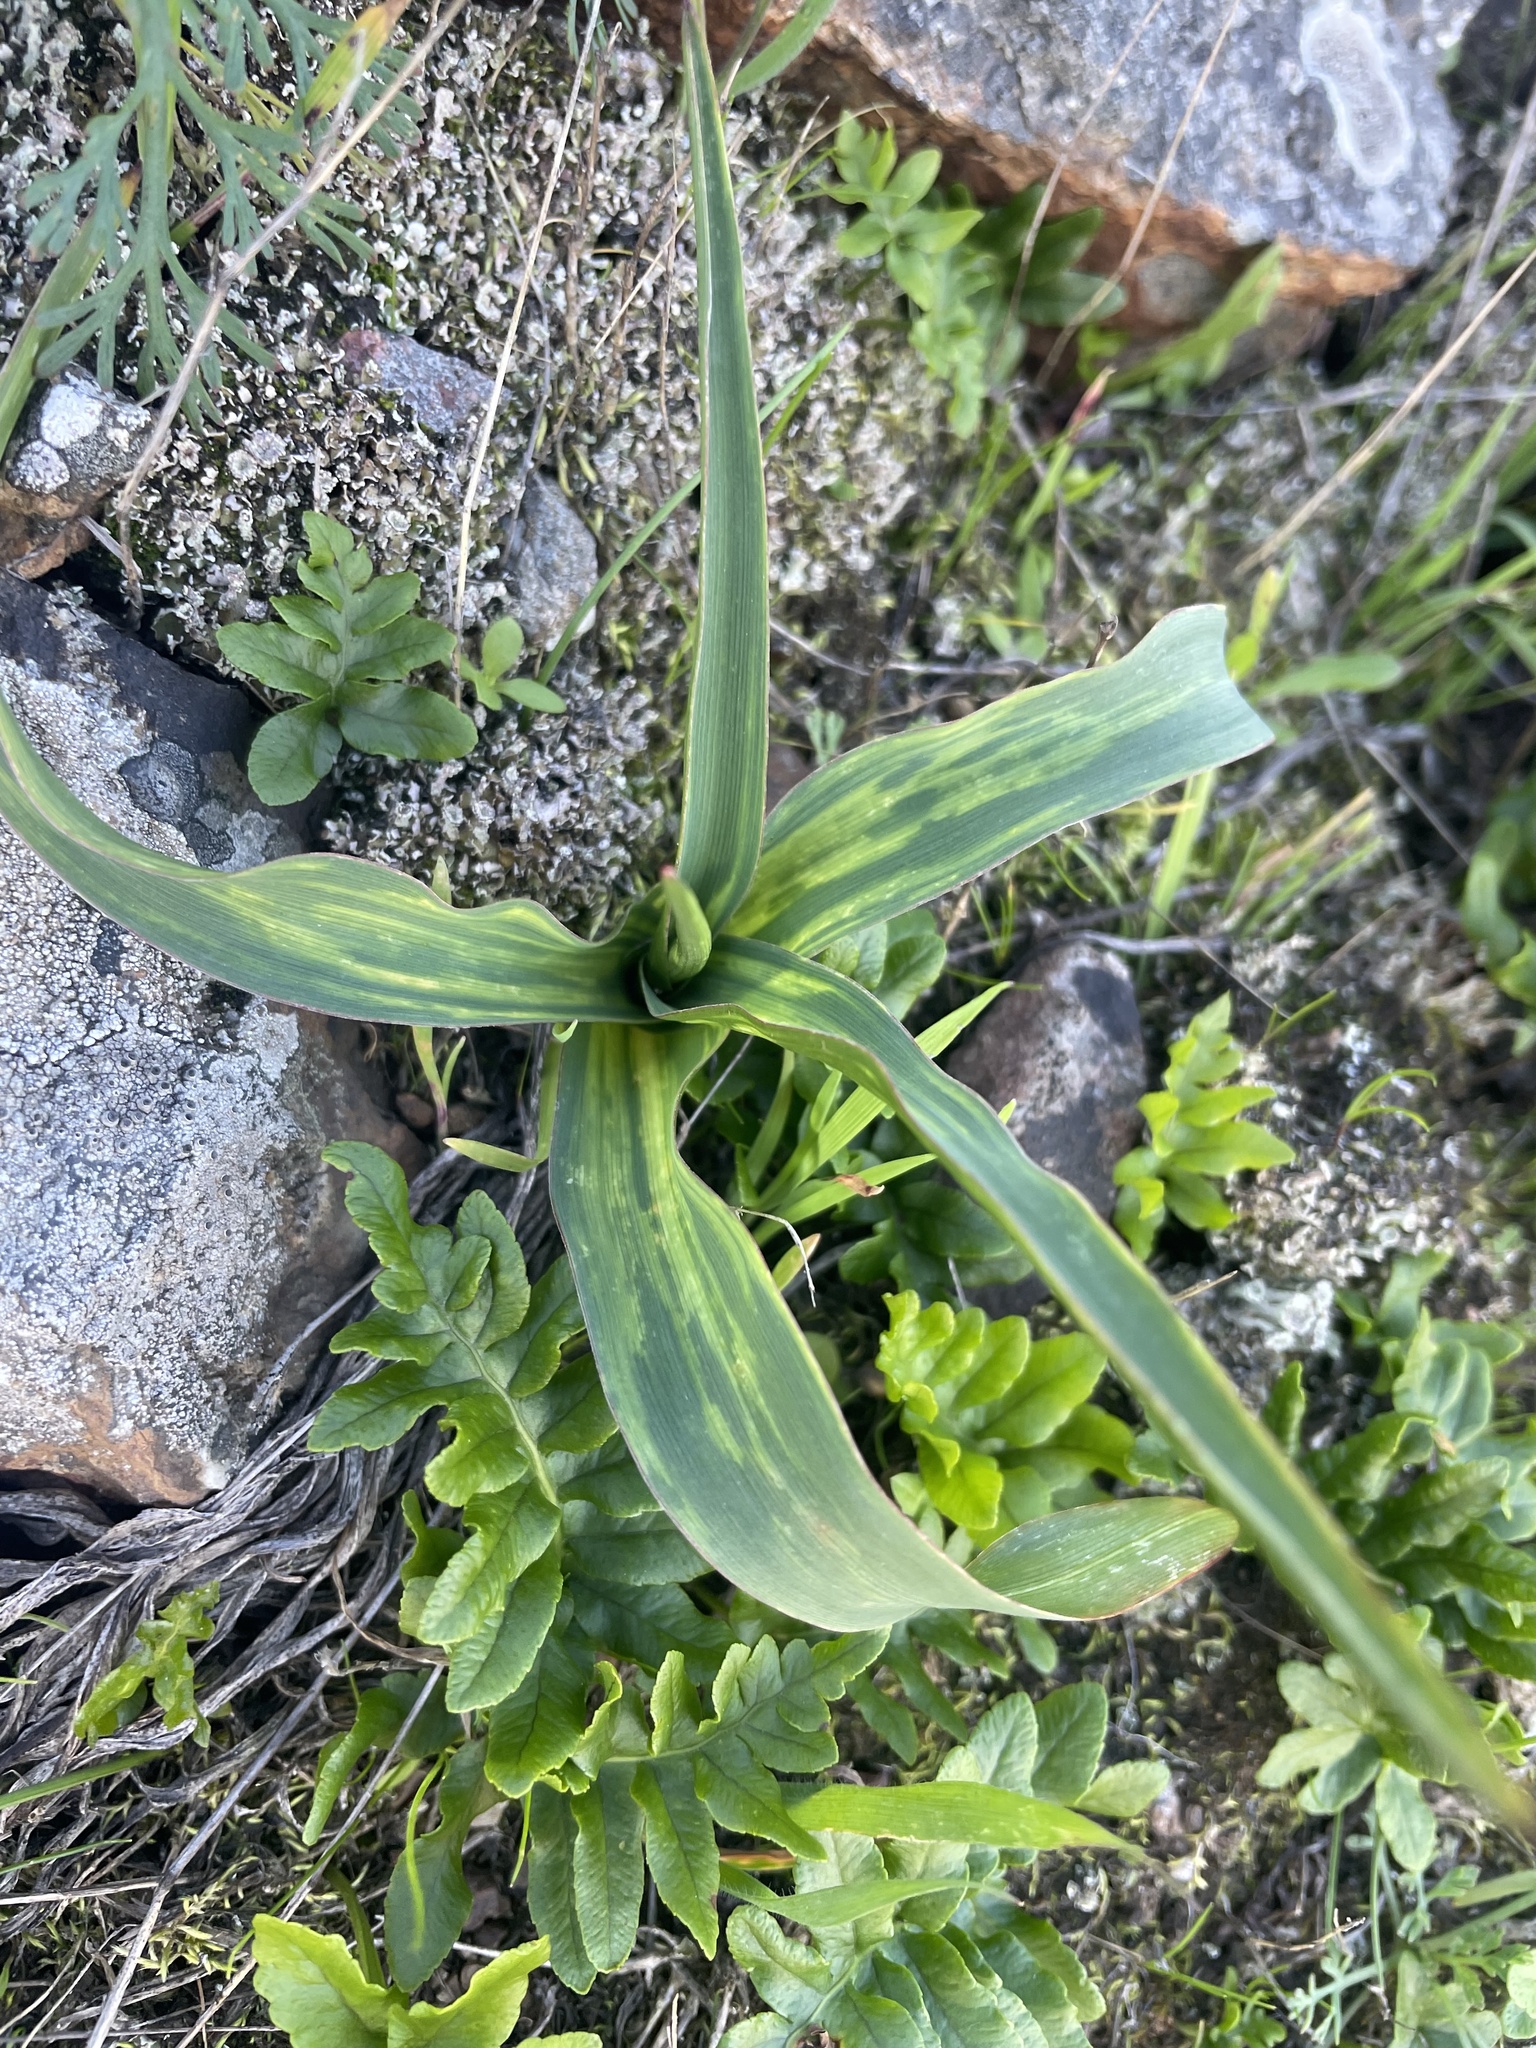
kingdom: Plantae
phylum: Tracheophyta
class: Liliopsida
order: Asparagales
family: Asparagaceae
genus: Chlorogalum
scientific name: Chlorogalum pomeridianum
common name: Amole
